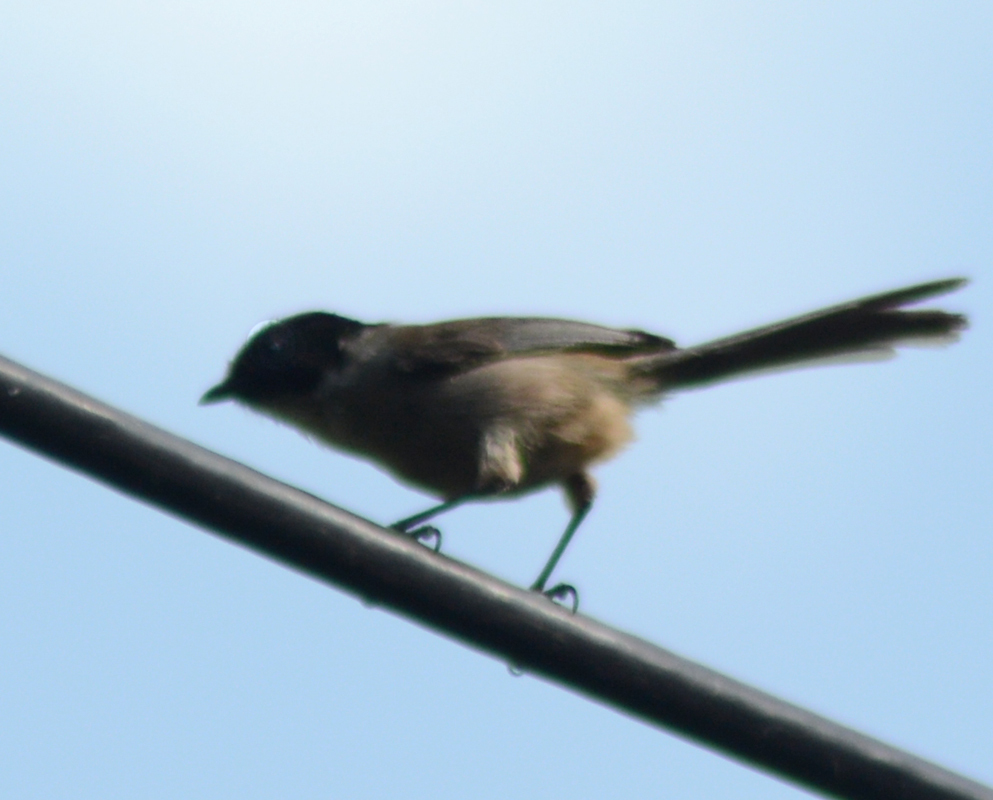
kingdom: Animalia
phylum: Chordata
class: Aves
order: Passeriformes
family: Aegithalidae
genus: Psaltriparus
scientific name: Psaltriparus minimus
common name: American bushtit
